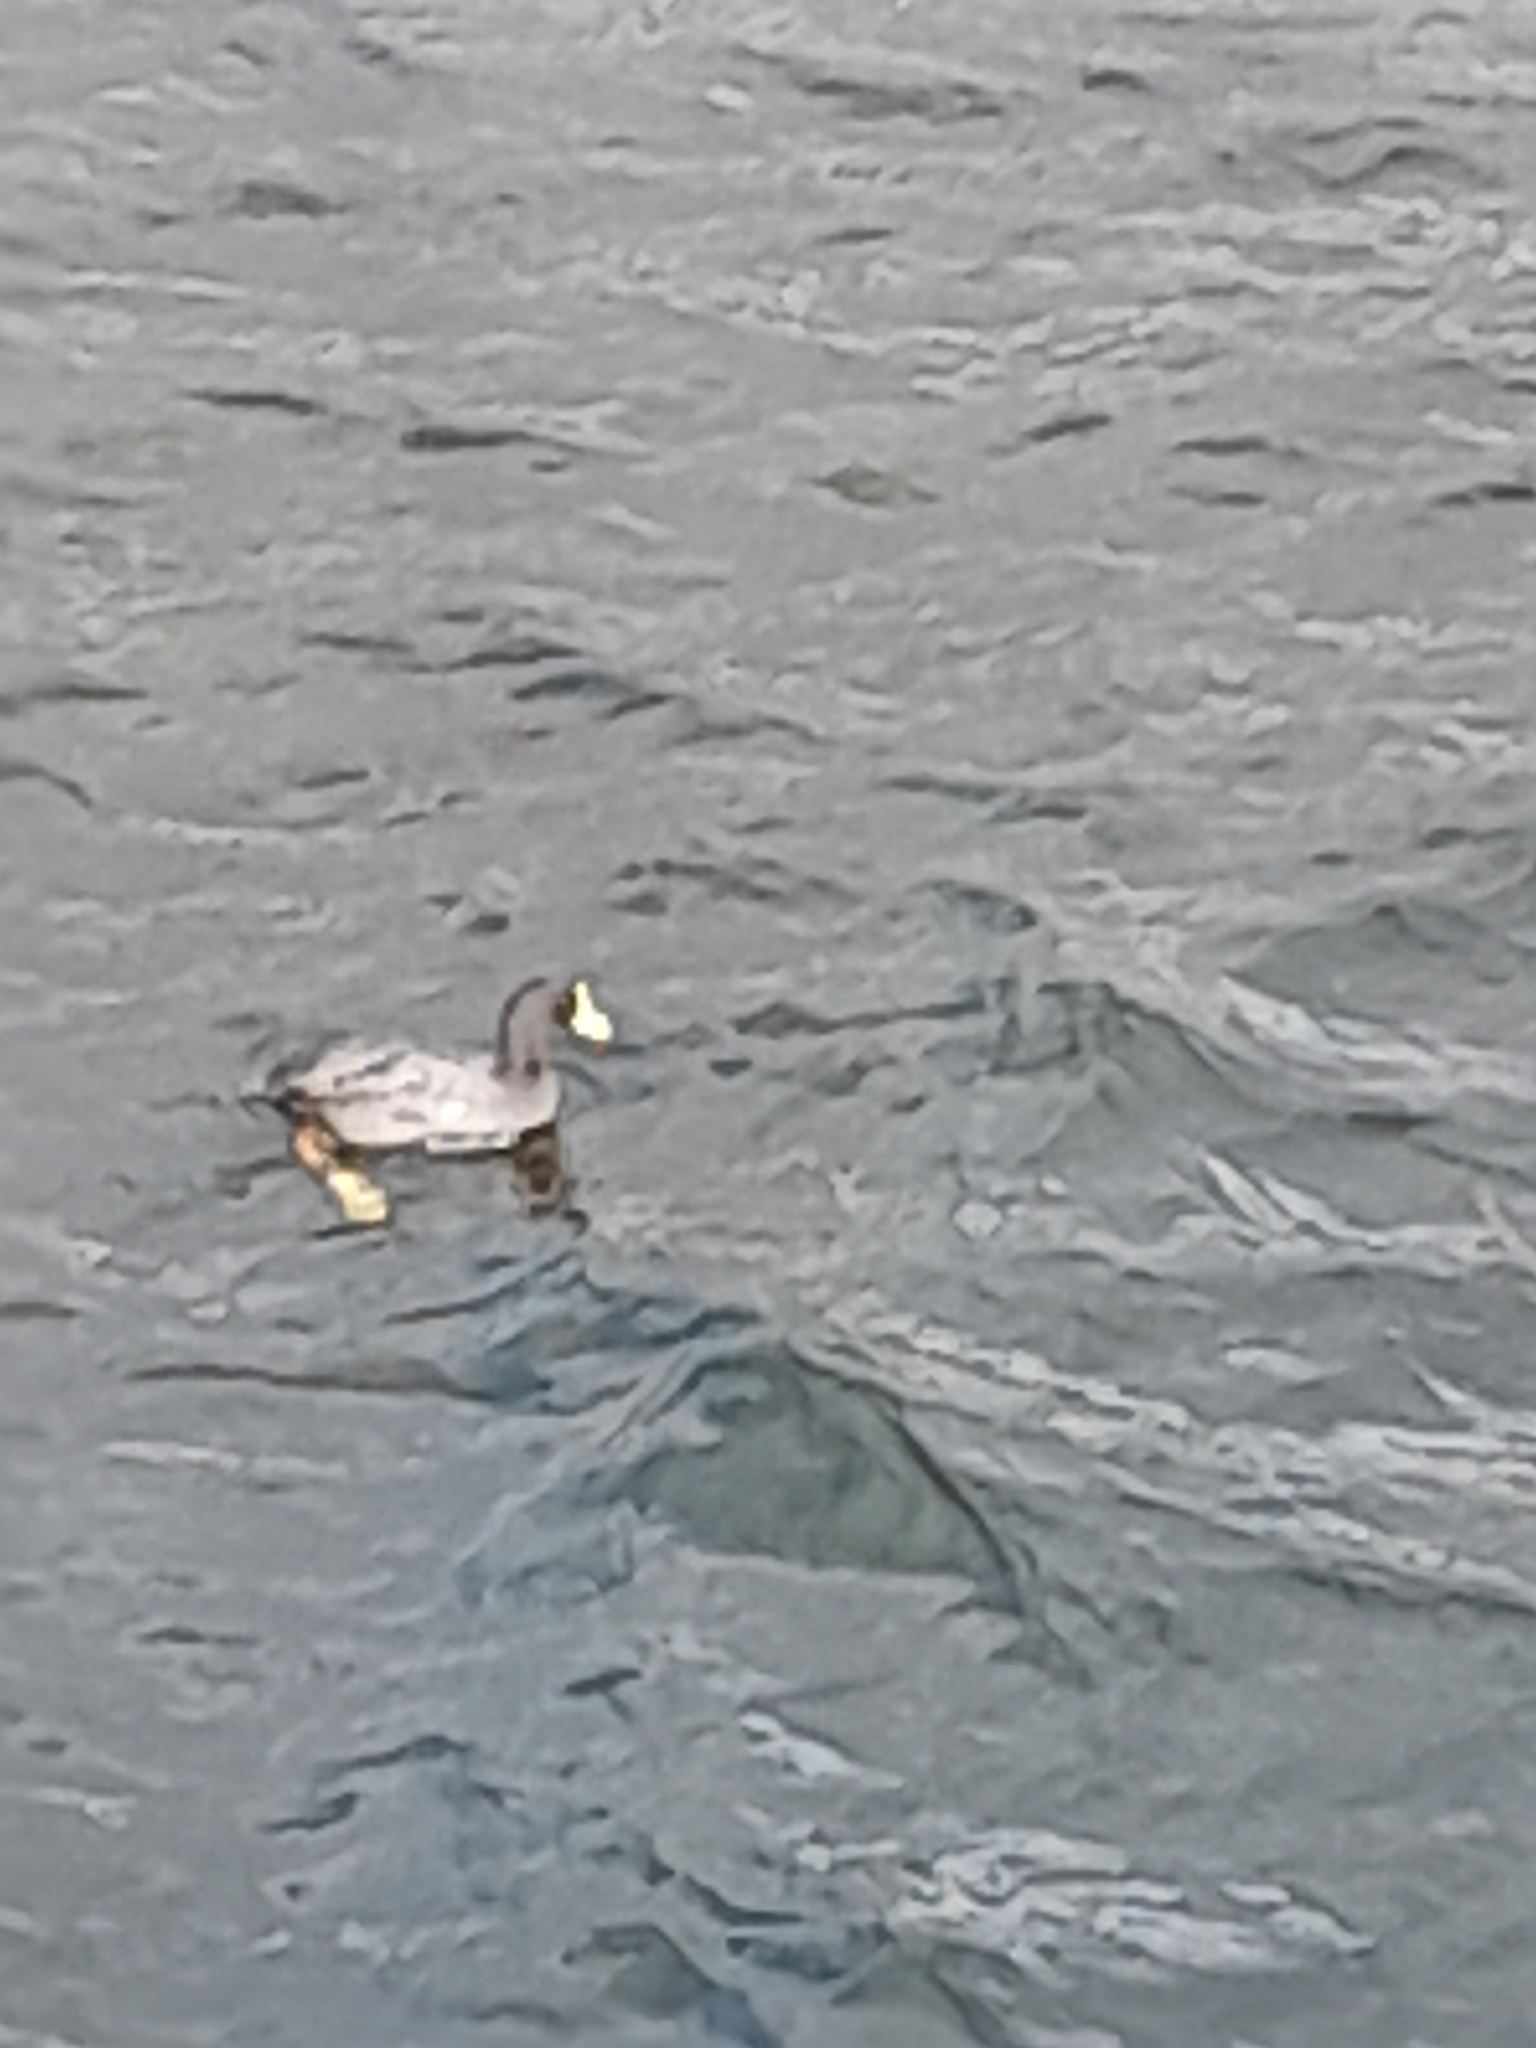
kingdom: Animalia
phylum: Chordata
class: Aves
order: Gruiformes
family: Rallidae
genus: Fulica
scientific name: Fulica armillata
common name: Red-gartered coot
